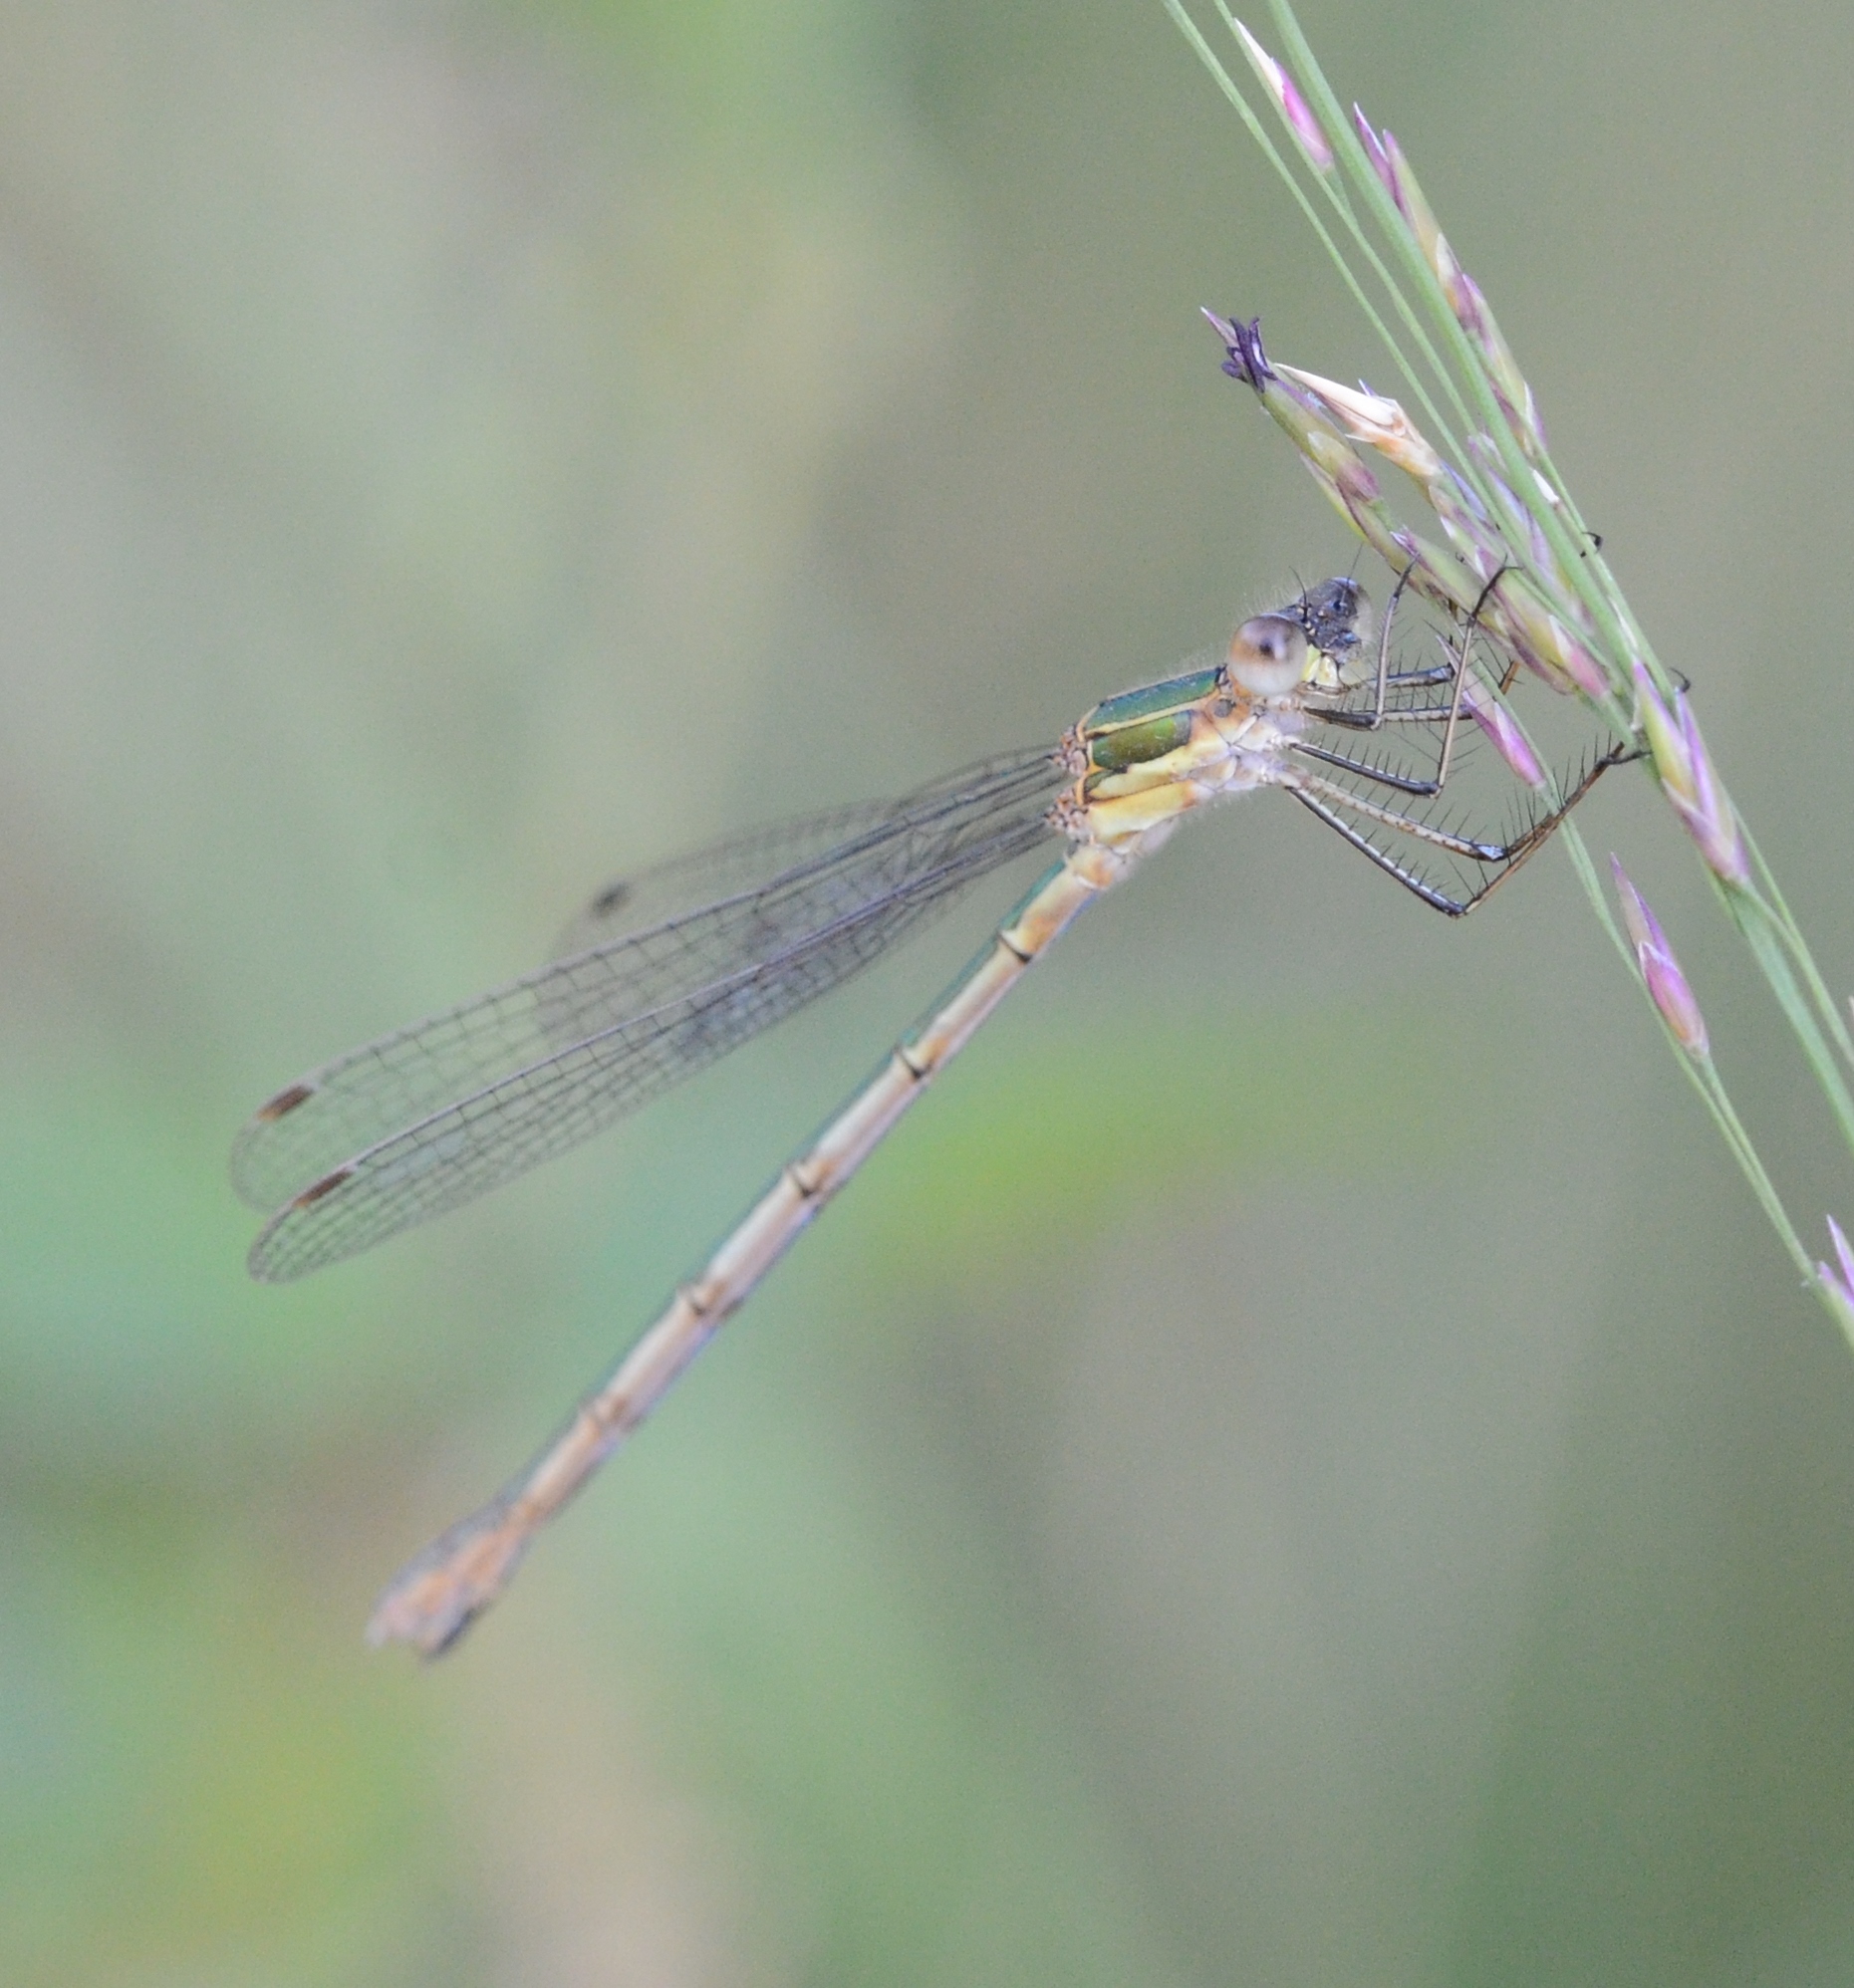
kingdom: Animalia
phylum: Arthropoda
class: Insecta
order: Odonata
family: Lestidae
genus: Lestes
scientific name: Lestes sponsa
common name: Common spreadwing
